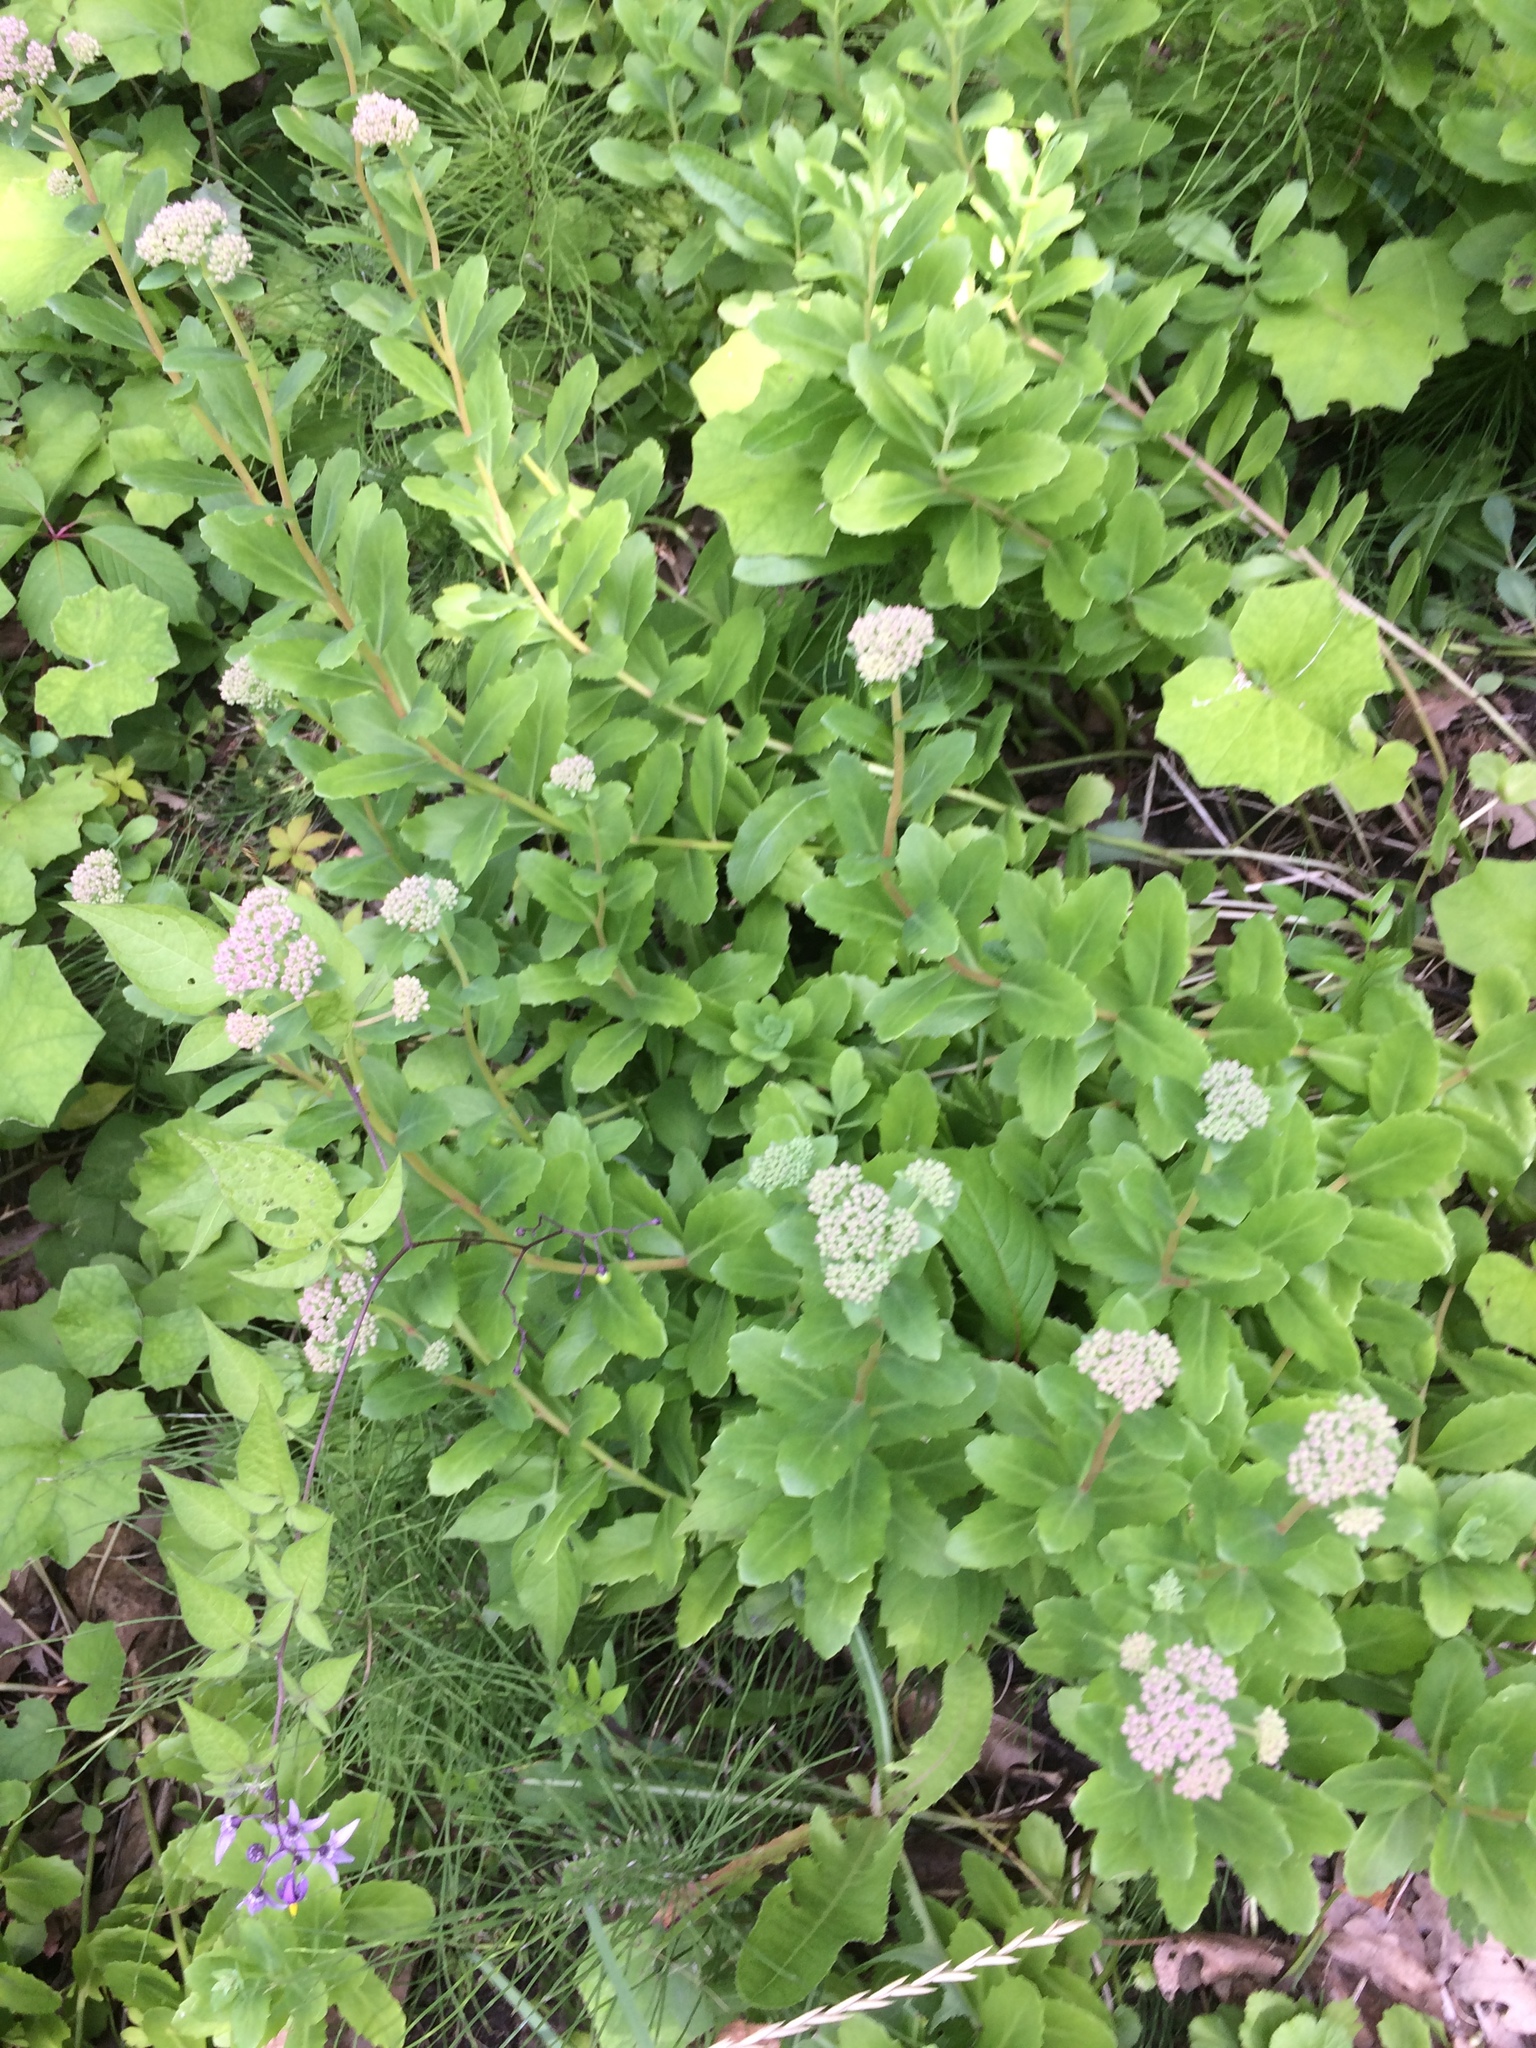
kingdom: Plantae
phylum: Tracheophyta
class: Magnoliopsida
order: Saxifragales
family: Crassulaceae
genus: Hylotelephium
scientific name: Hylotelephium telephium
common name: Live-forever
